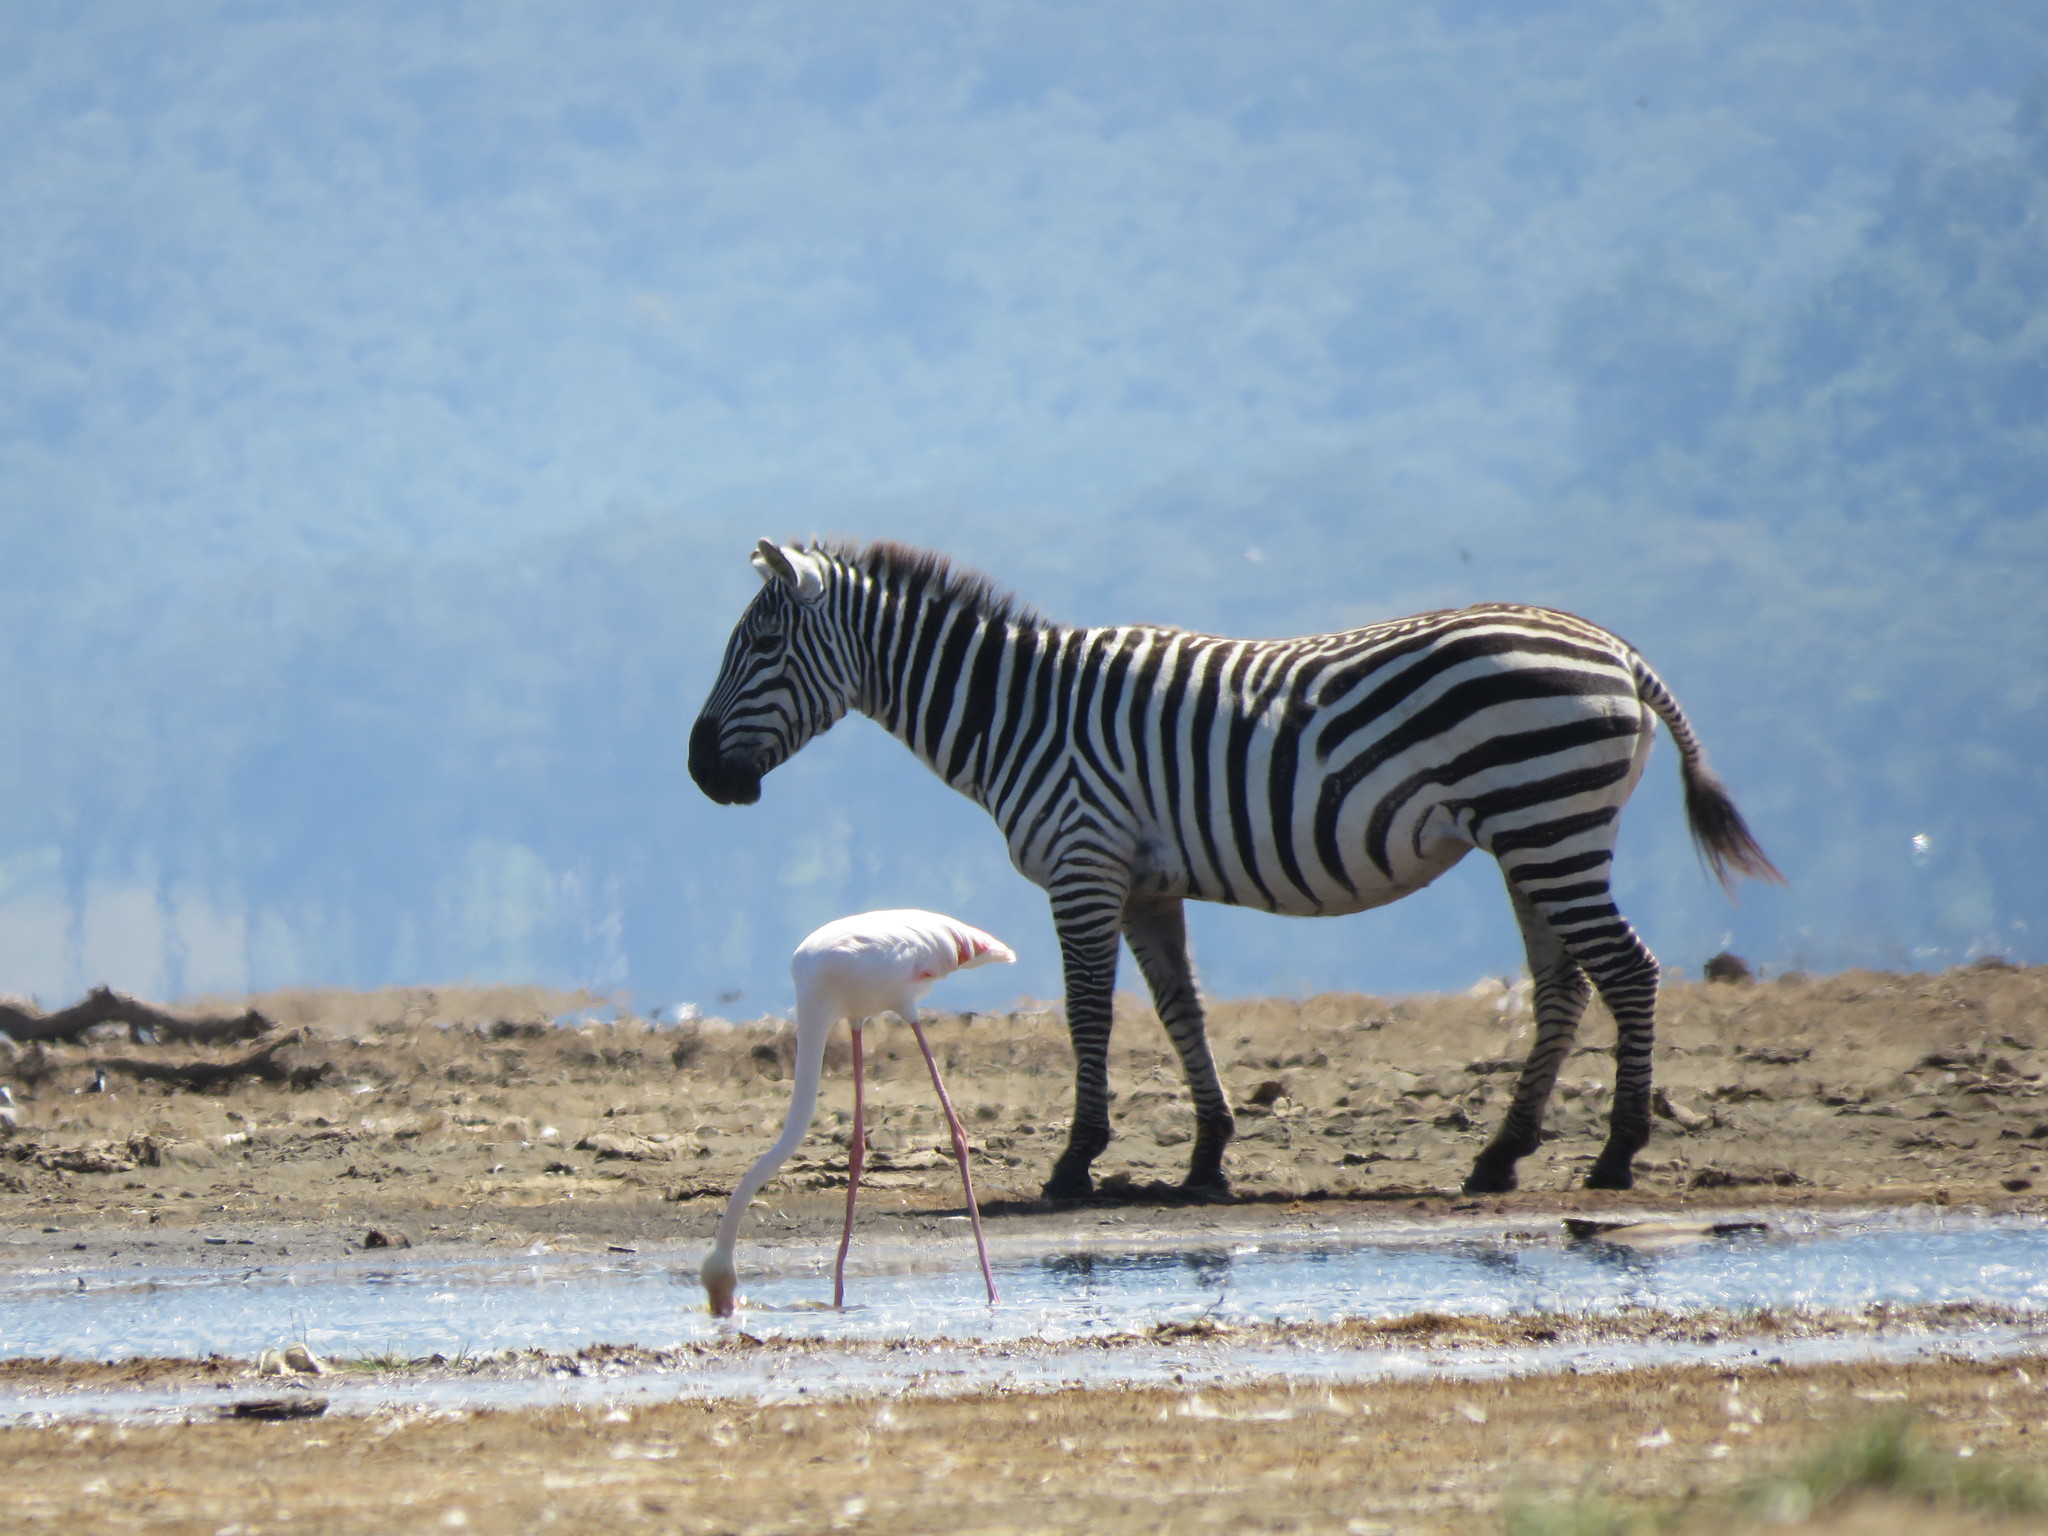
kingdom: Animalia
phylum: Chordata
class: Mammalia
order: Perissodactyla
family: Equidae
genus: Equus
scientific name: Equus quagga
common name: Plains zebra
